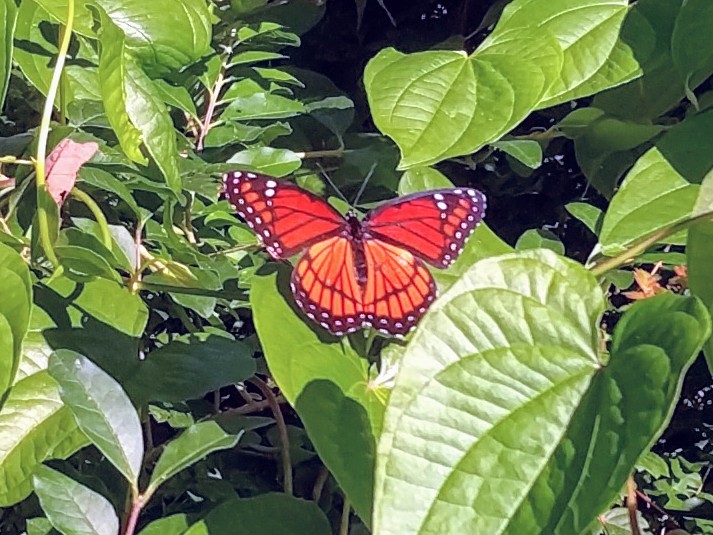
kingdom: Animalia
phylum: Arthropoda
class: Insecta
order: Lepidoptera
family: Nymphalidae
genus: Limenitis
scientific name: Limenitis archippus
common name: Viceroy
